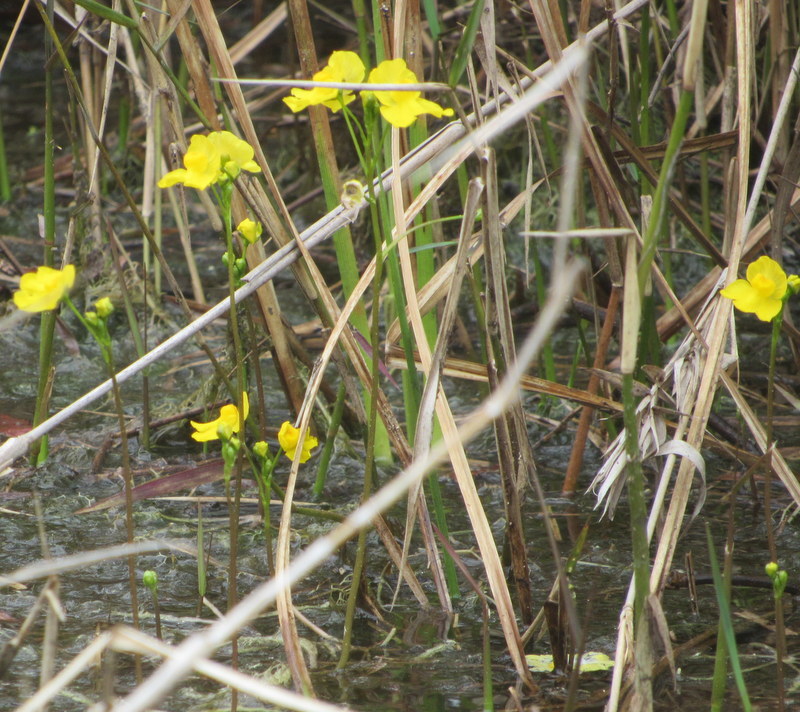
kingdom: Plantae
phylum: Tracheophyta
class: Magnoliopsida
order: Lamiales
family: Lentibulariaceae
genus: Utricularia
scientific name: Utricularia inflata
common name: Floating bladderwort
